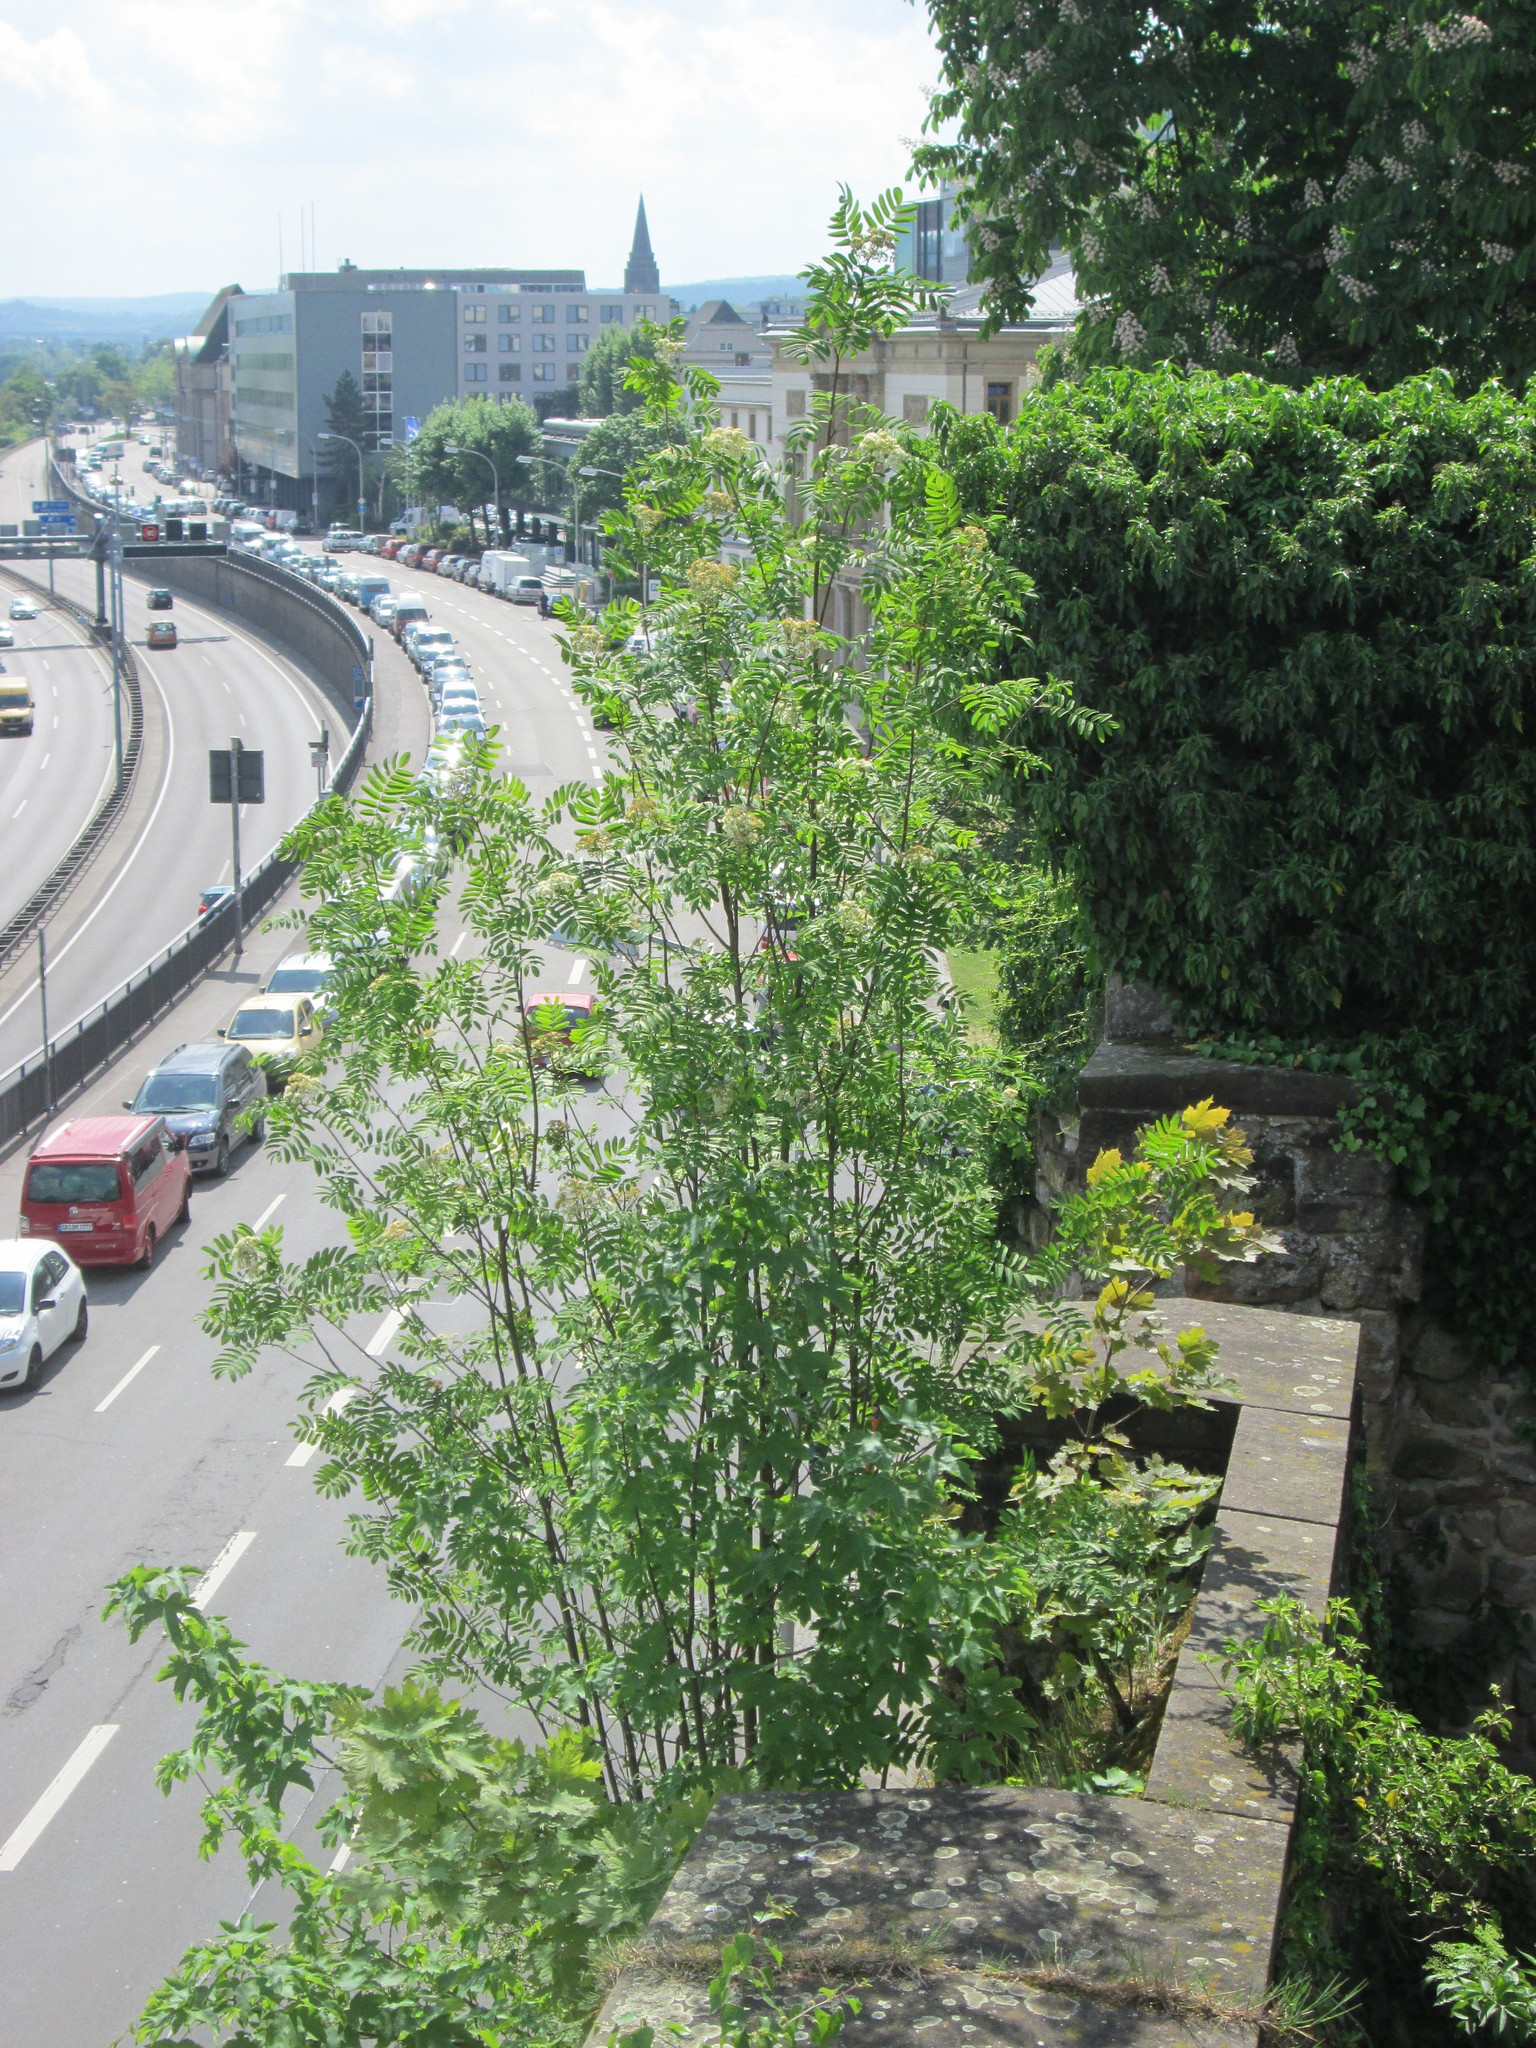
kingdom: Plantae
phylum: Tracheophyta
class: Magnoliopsida
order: Rosales
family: Rosaceae
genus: Sorbus
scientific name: Sorbus aucuparia
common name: Rowan
